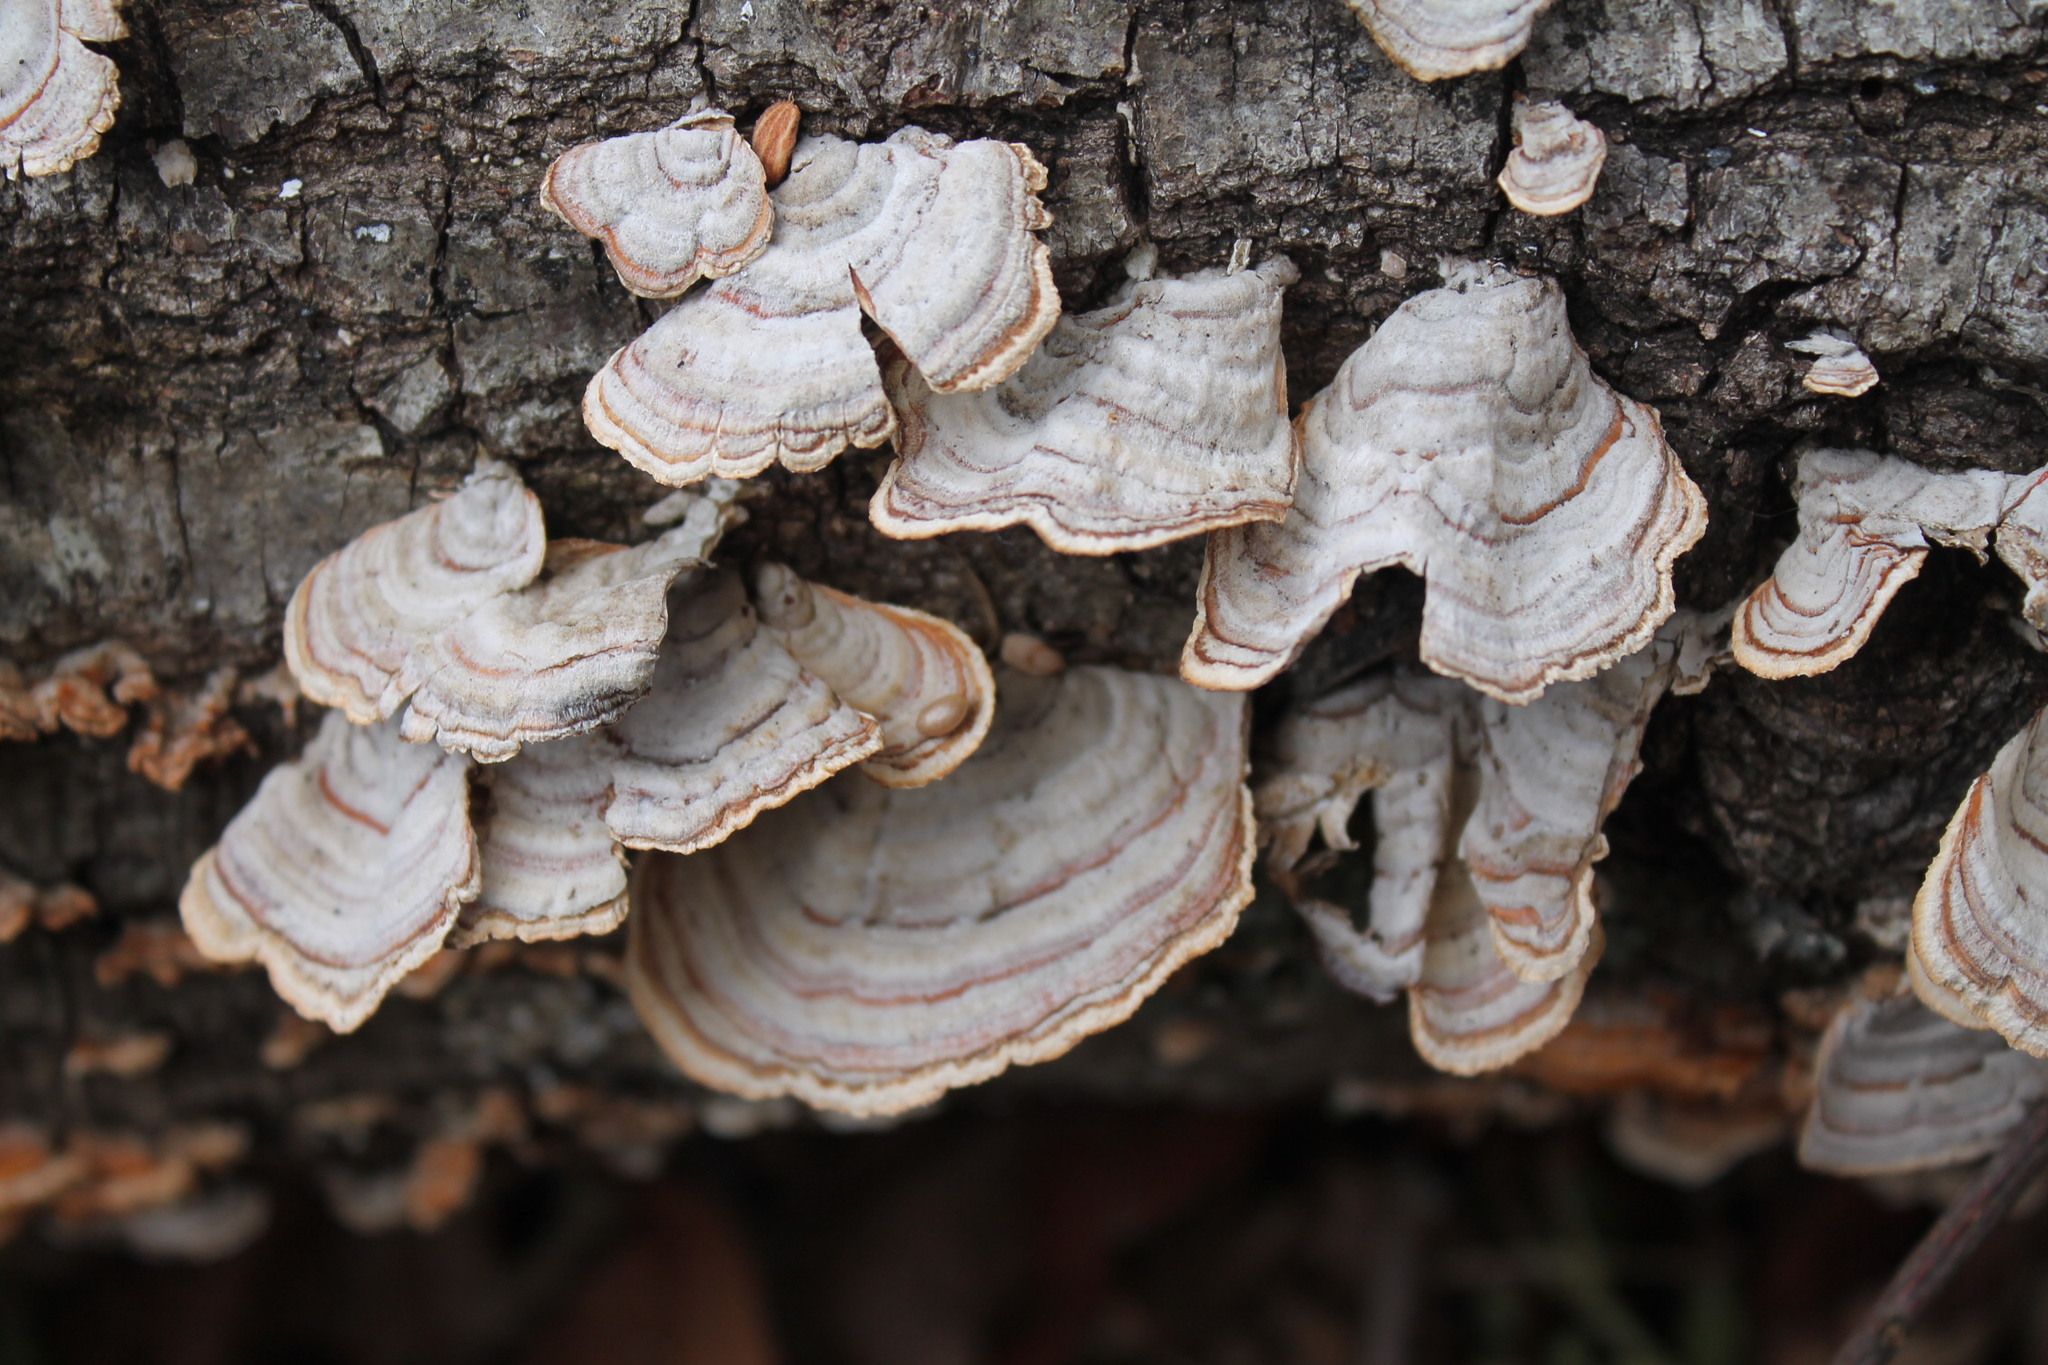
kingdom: Fungi
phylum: Basidiomycota
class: Agaricomycetes
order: Russulales
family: Stereaceae
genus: Stereum
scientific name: Stereum lobatum
